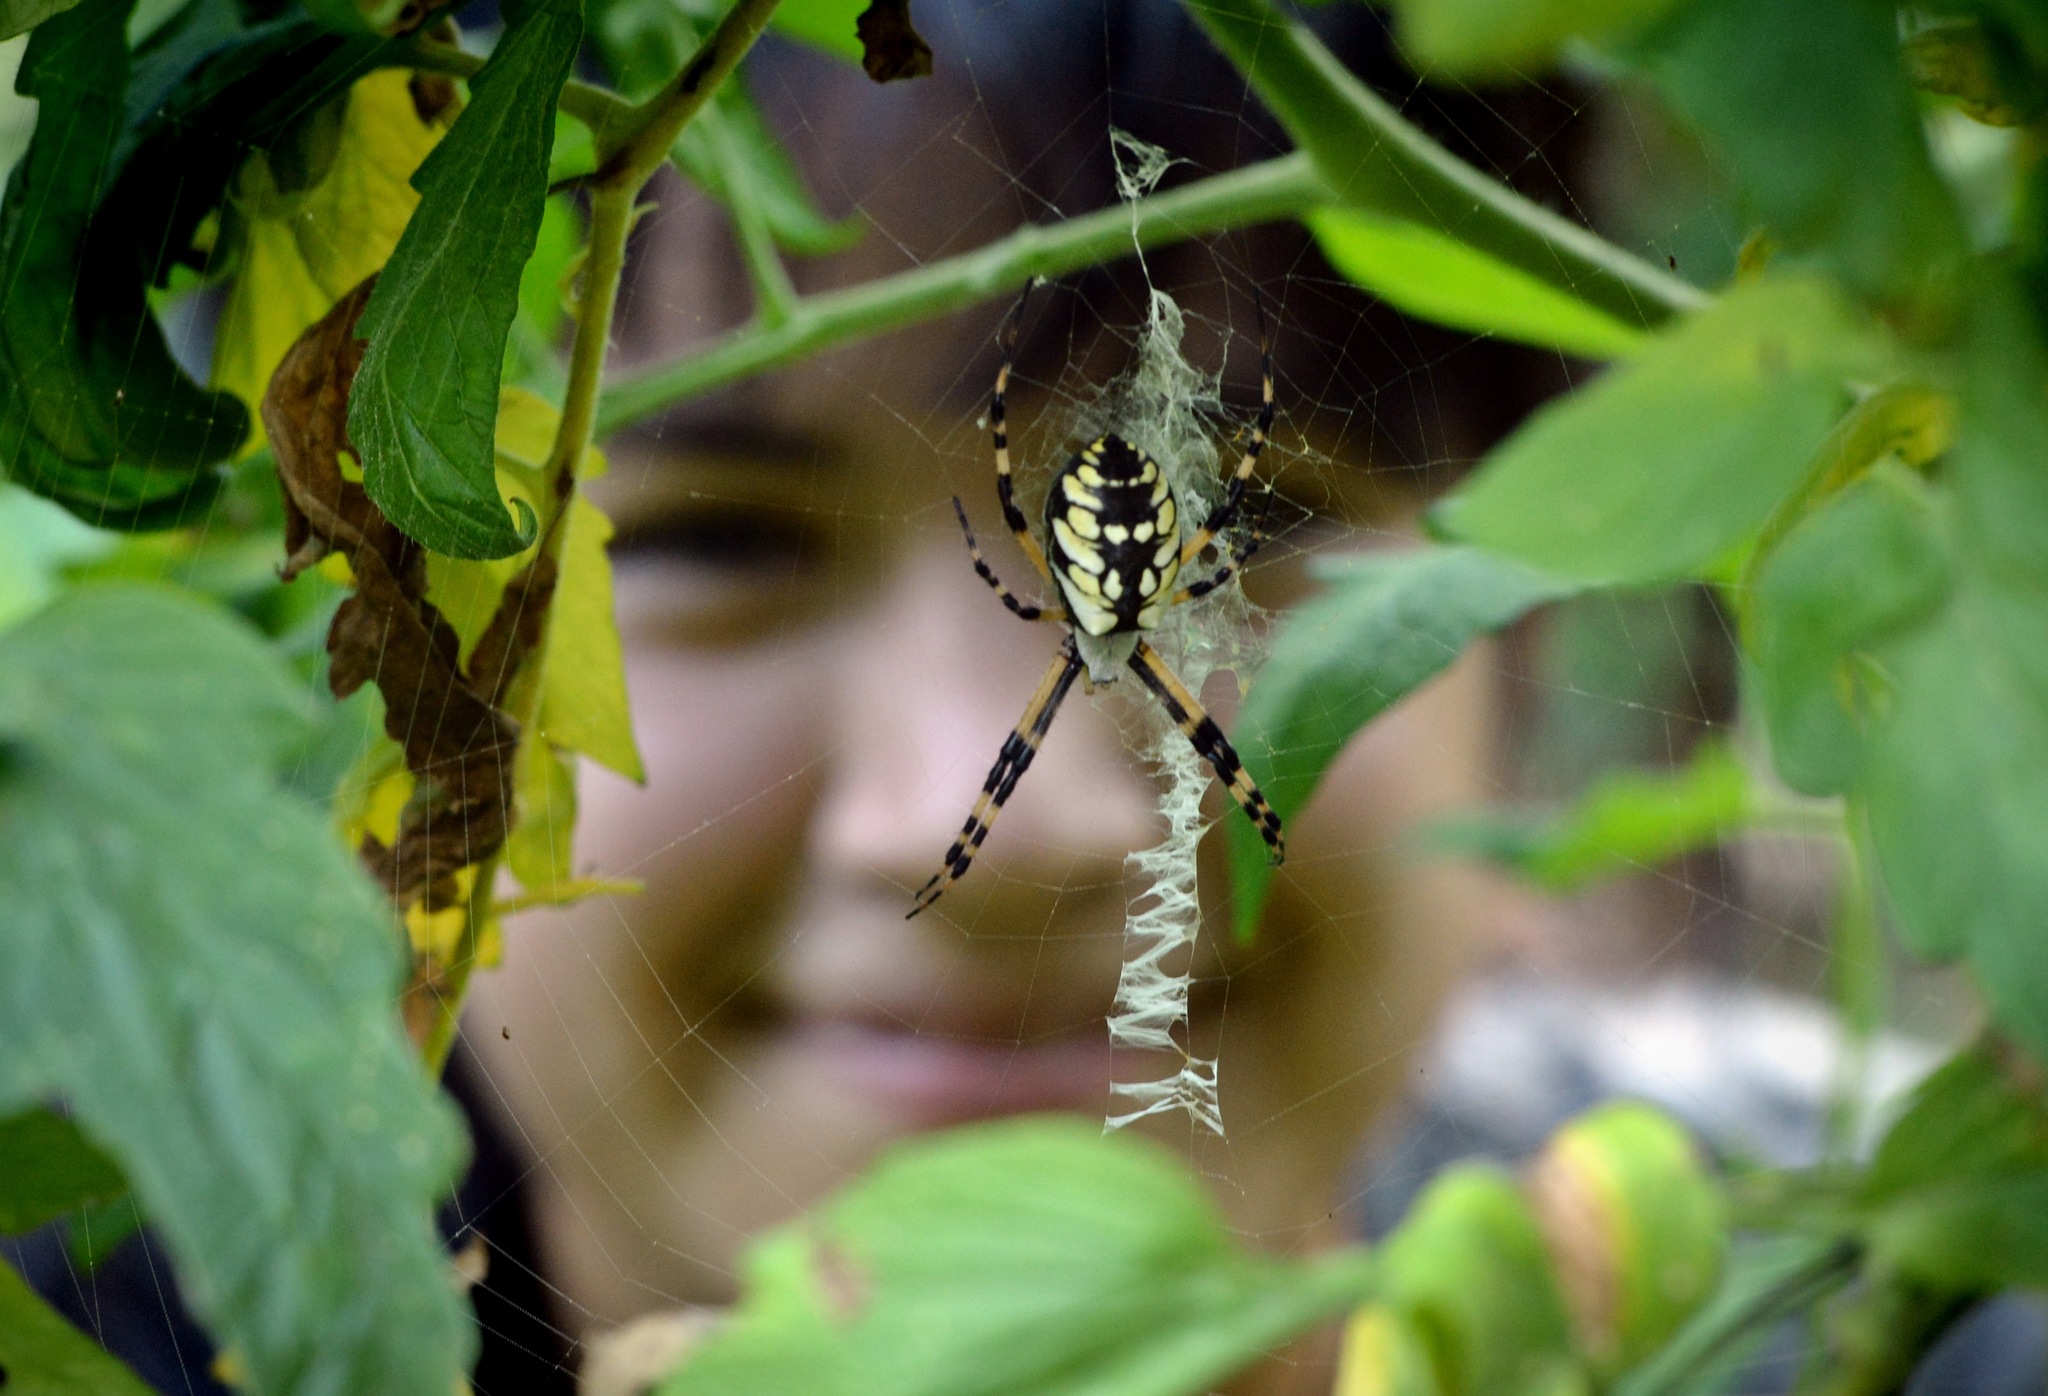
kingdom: Animalia
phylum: Arthropoda
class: Arachnida
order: Araneae
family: Araneidae
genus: Argiope
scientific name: Argiope aurantia
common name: Orb weavers
